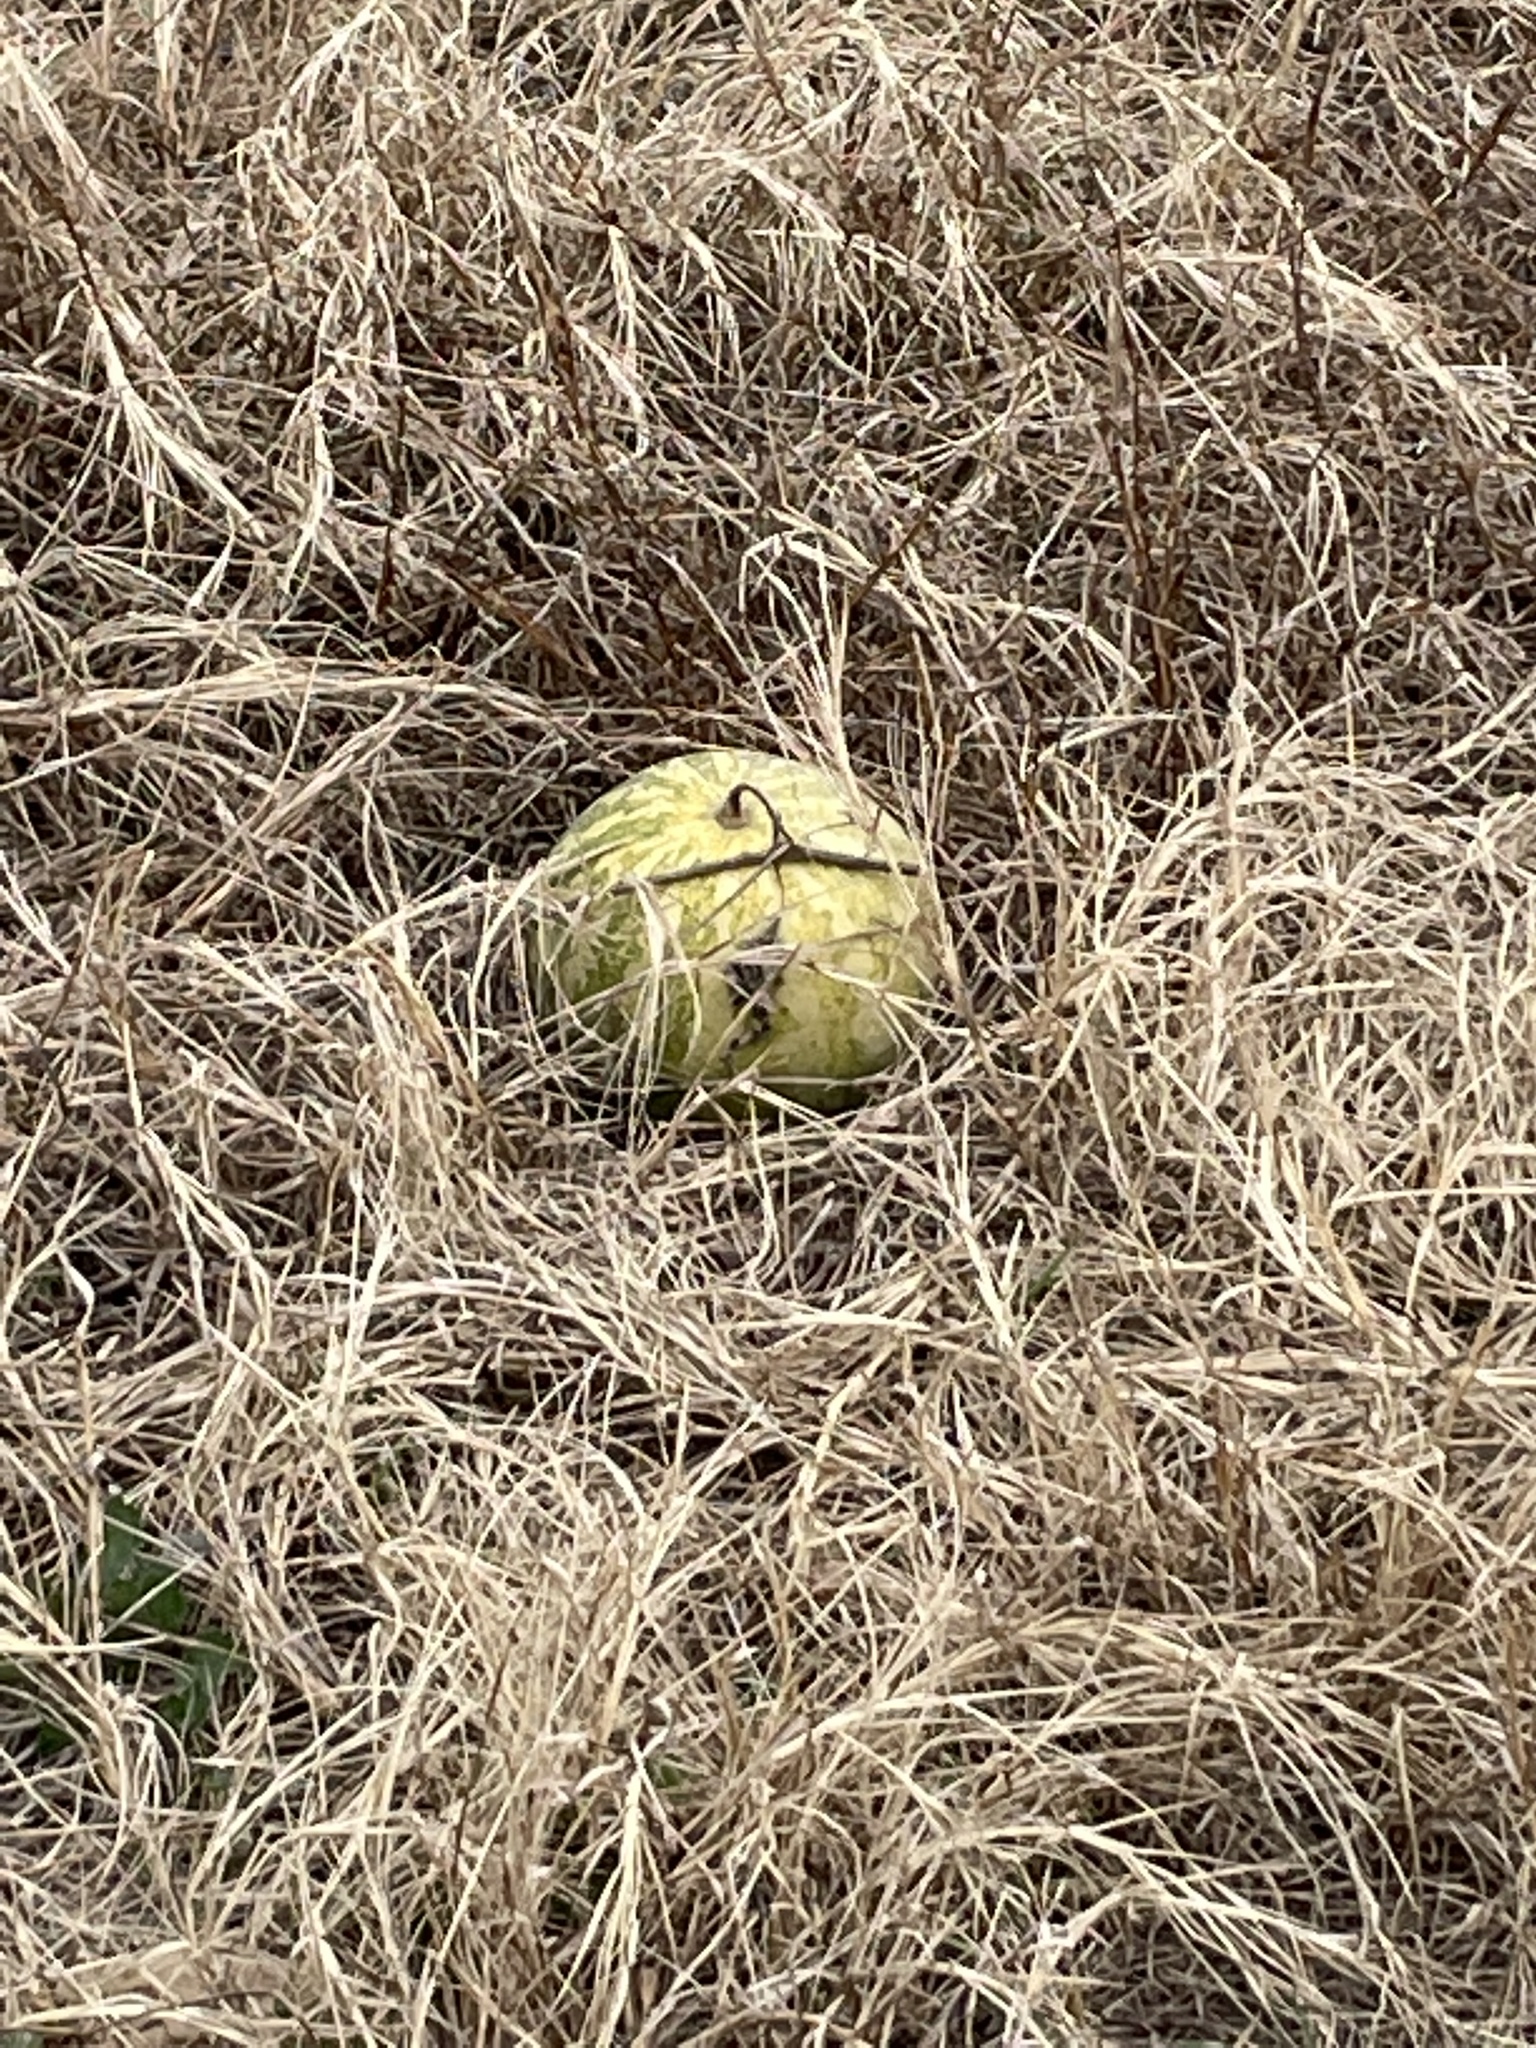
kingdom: Plantae
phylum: Tracheophyta
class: Magnoliopsida
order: Cucurbitales
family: Cucurbitaceae
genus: Citrullus
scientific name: Citrullus amarus
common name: Fodder-melon
